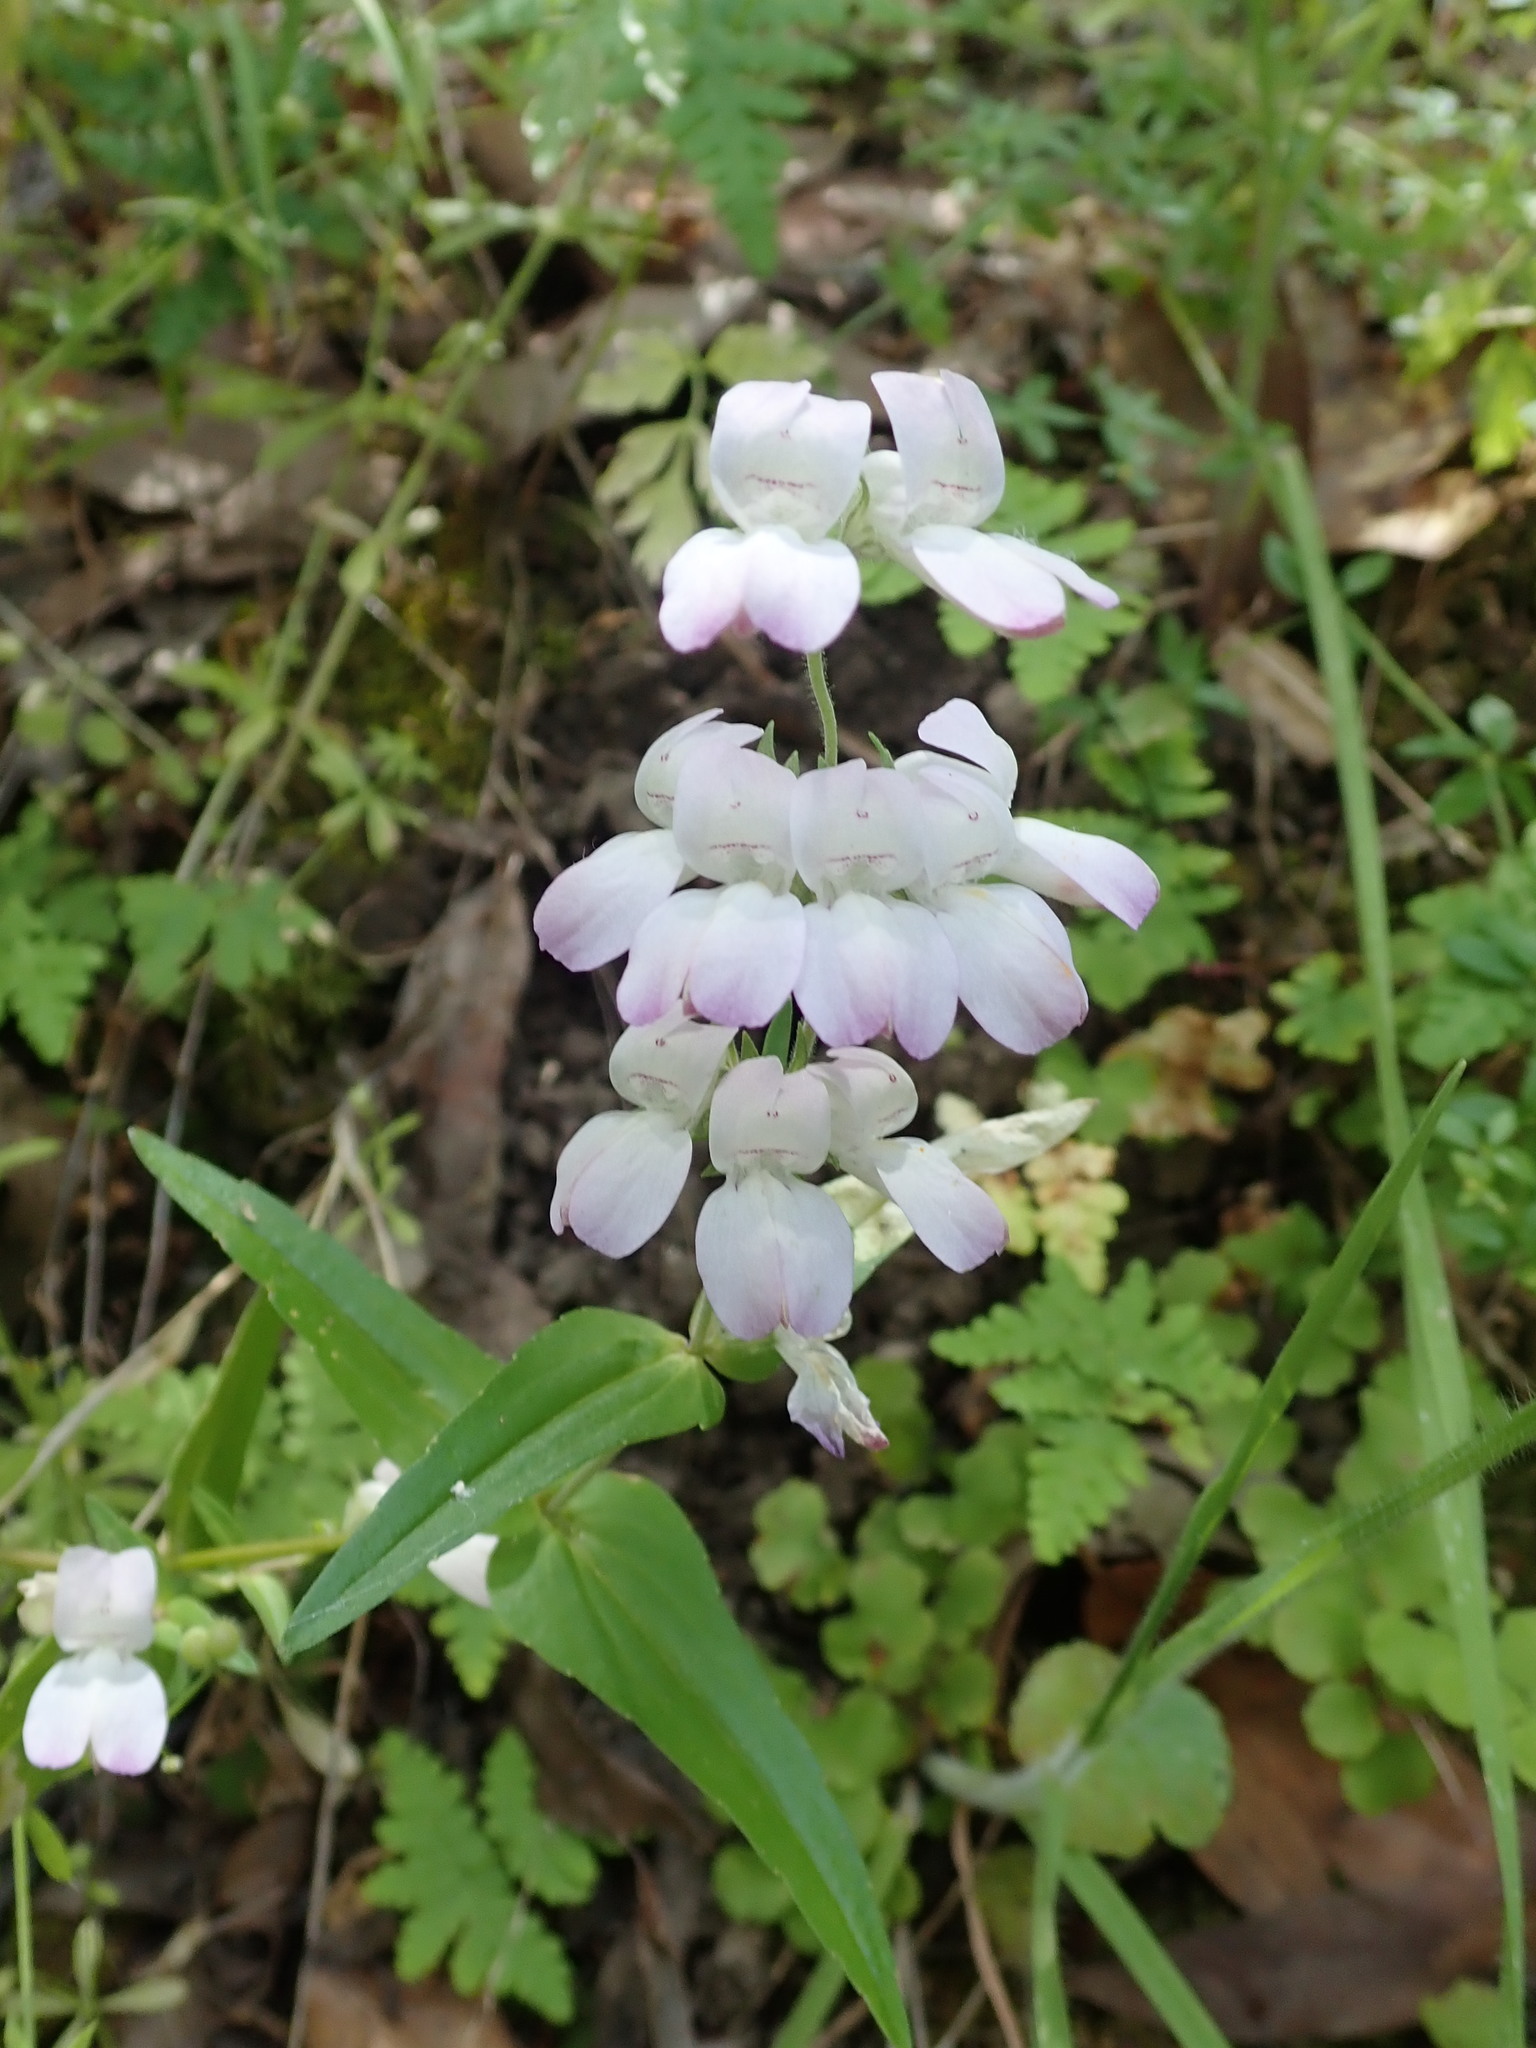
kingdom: Plantae
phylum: Tracheophyta
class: Magnoliopsida
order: Lamiales
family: Plantaginaceae
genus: Collinsia
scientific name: Collinsia heterophylla
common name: Chinese-houses
